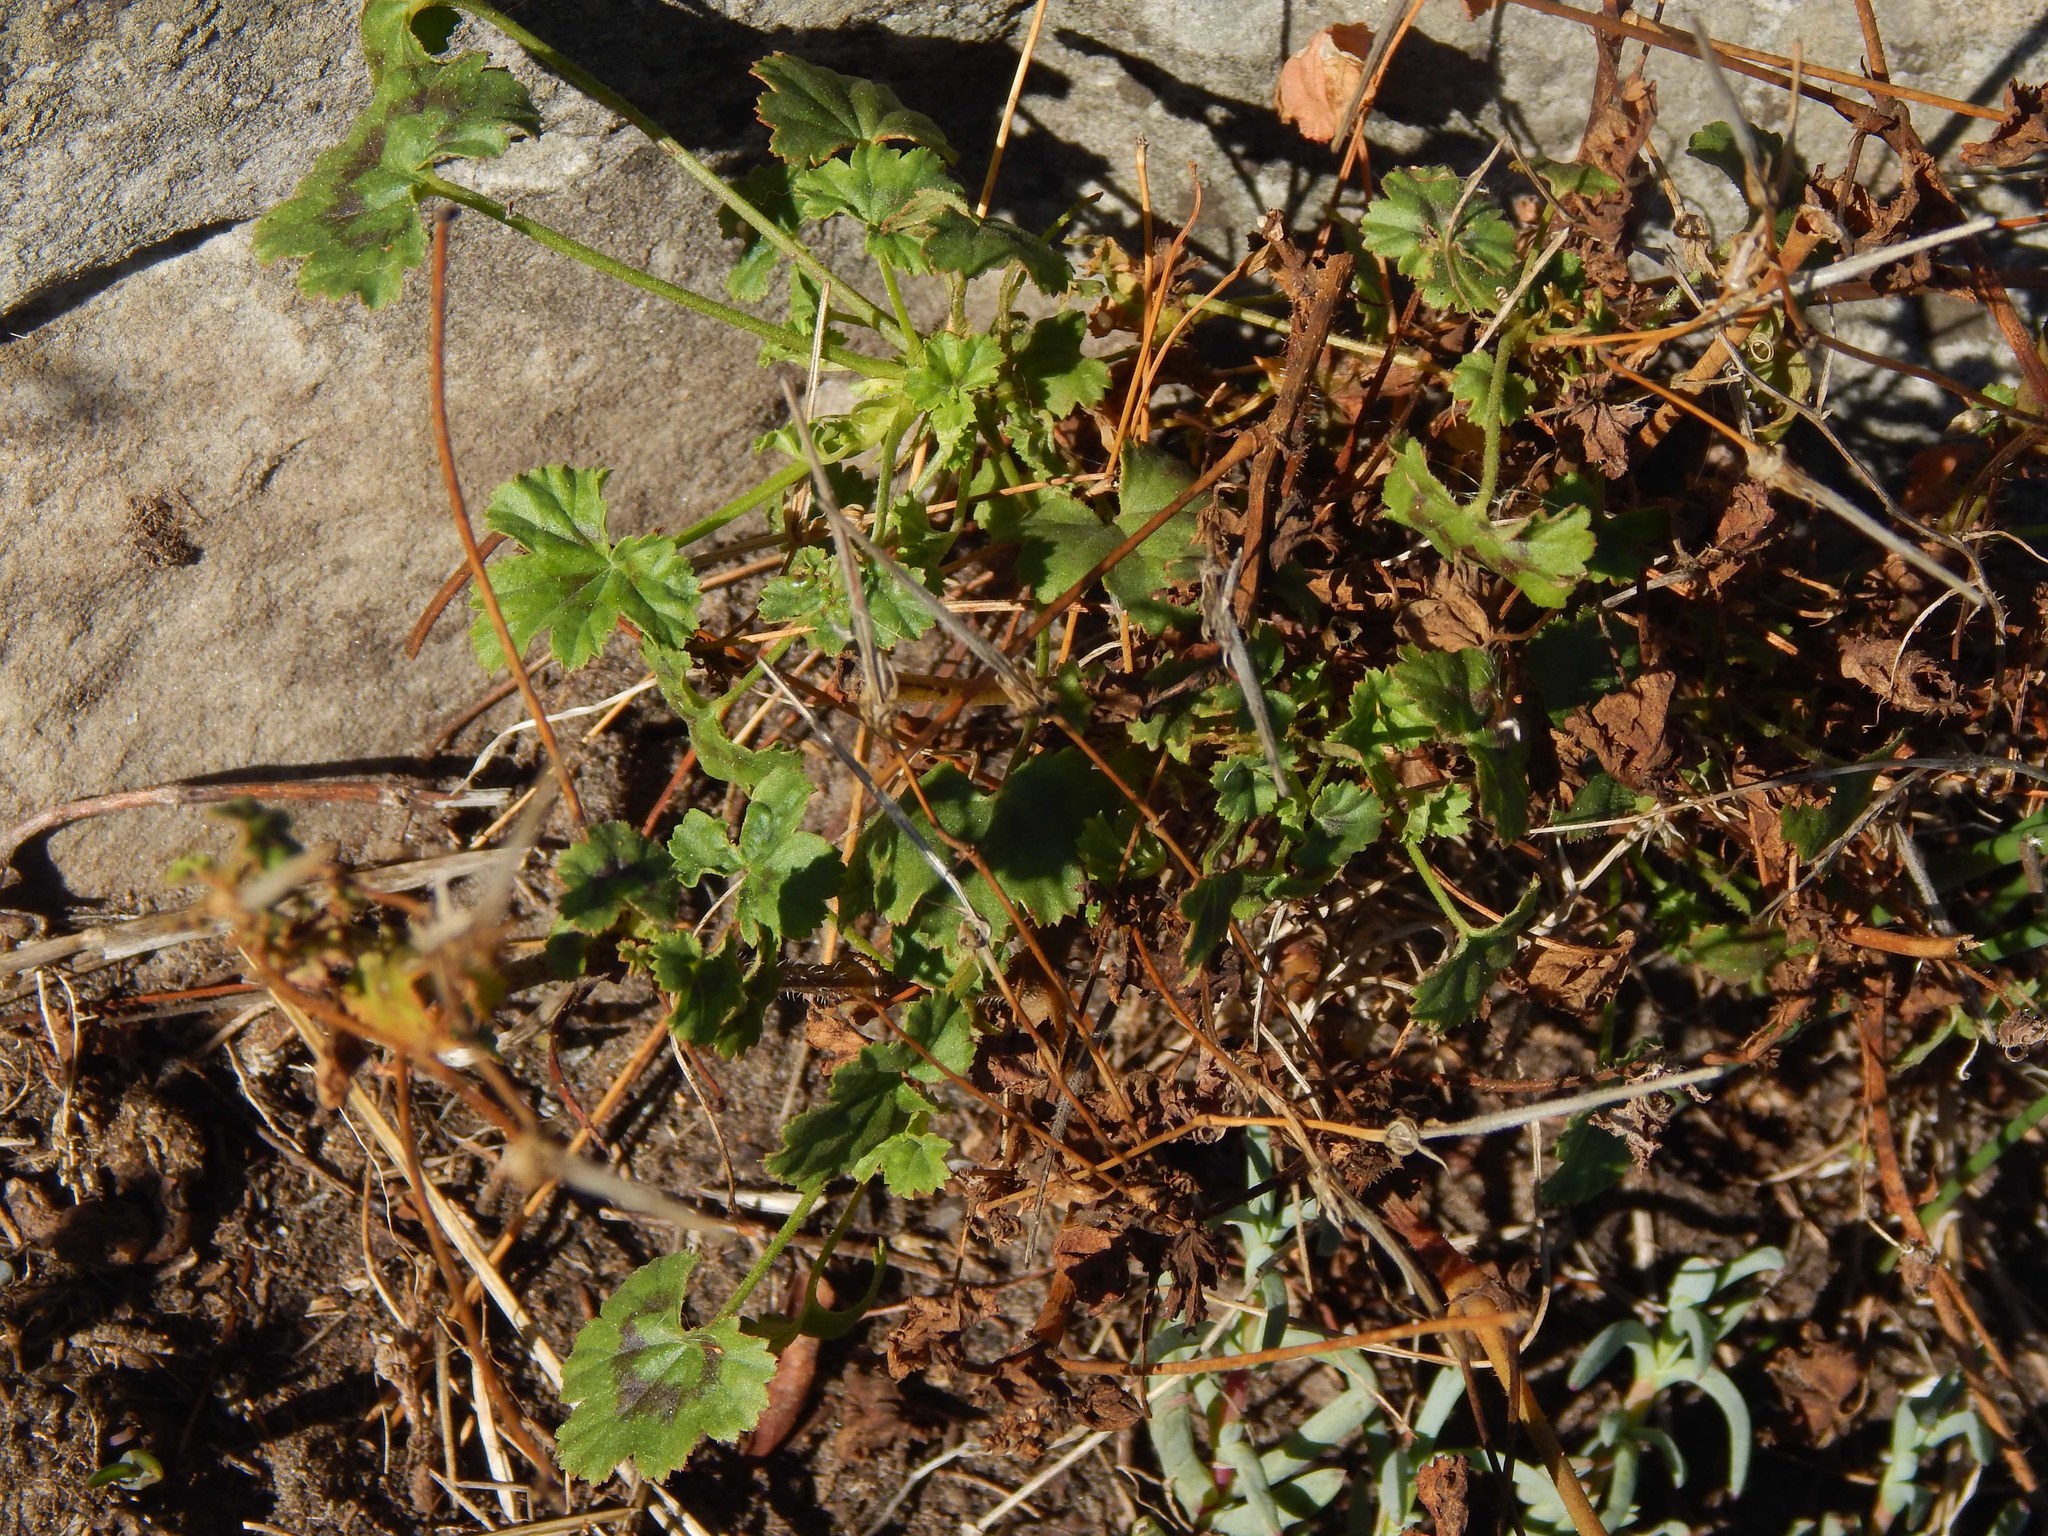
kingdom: Plantae
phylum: Tracheophyta
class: Magnoliopsida
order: Geraniales
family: Geraniaceae
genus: Pelargonium
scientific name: Pelargonium elongatum
